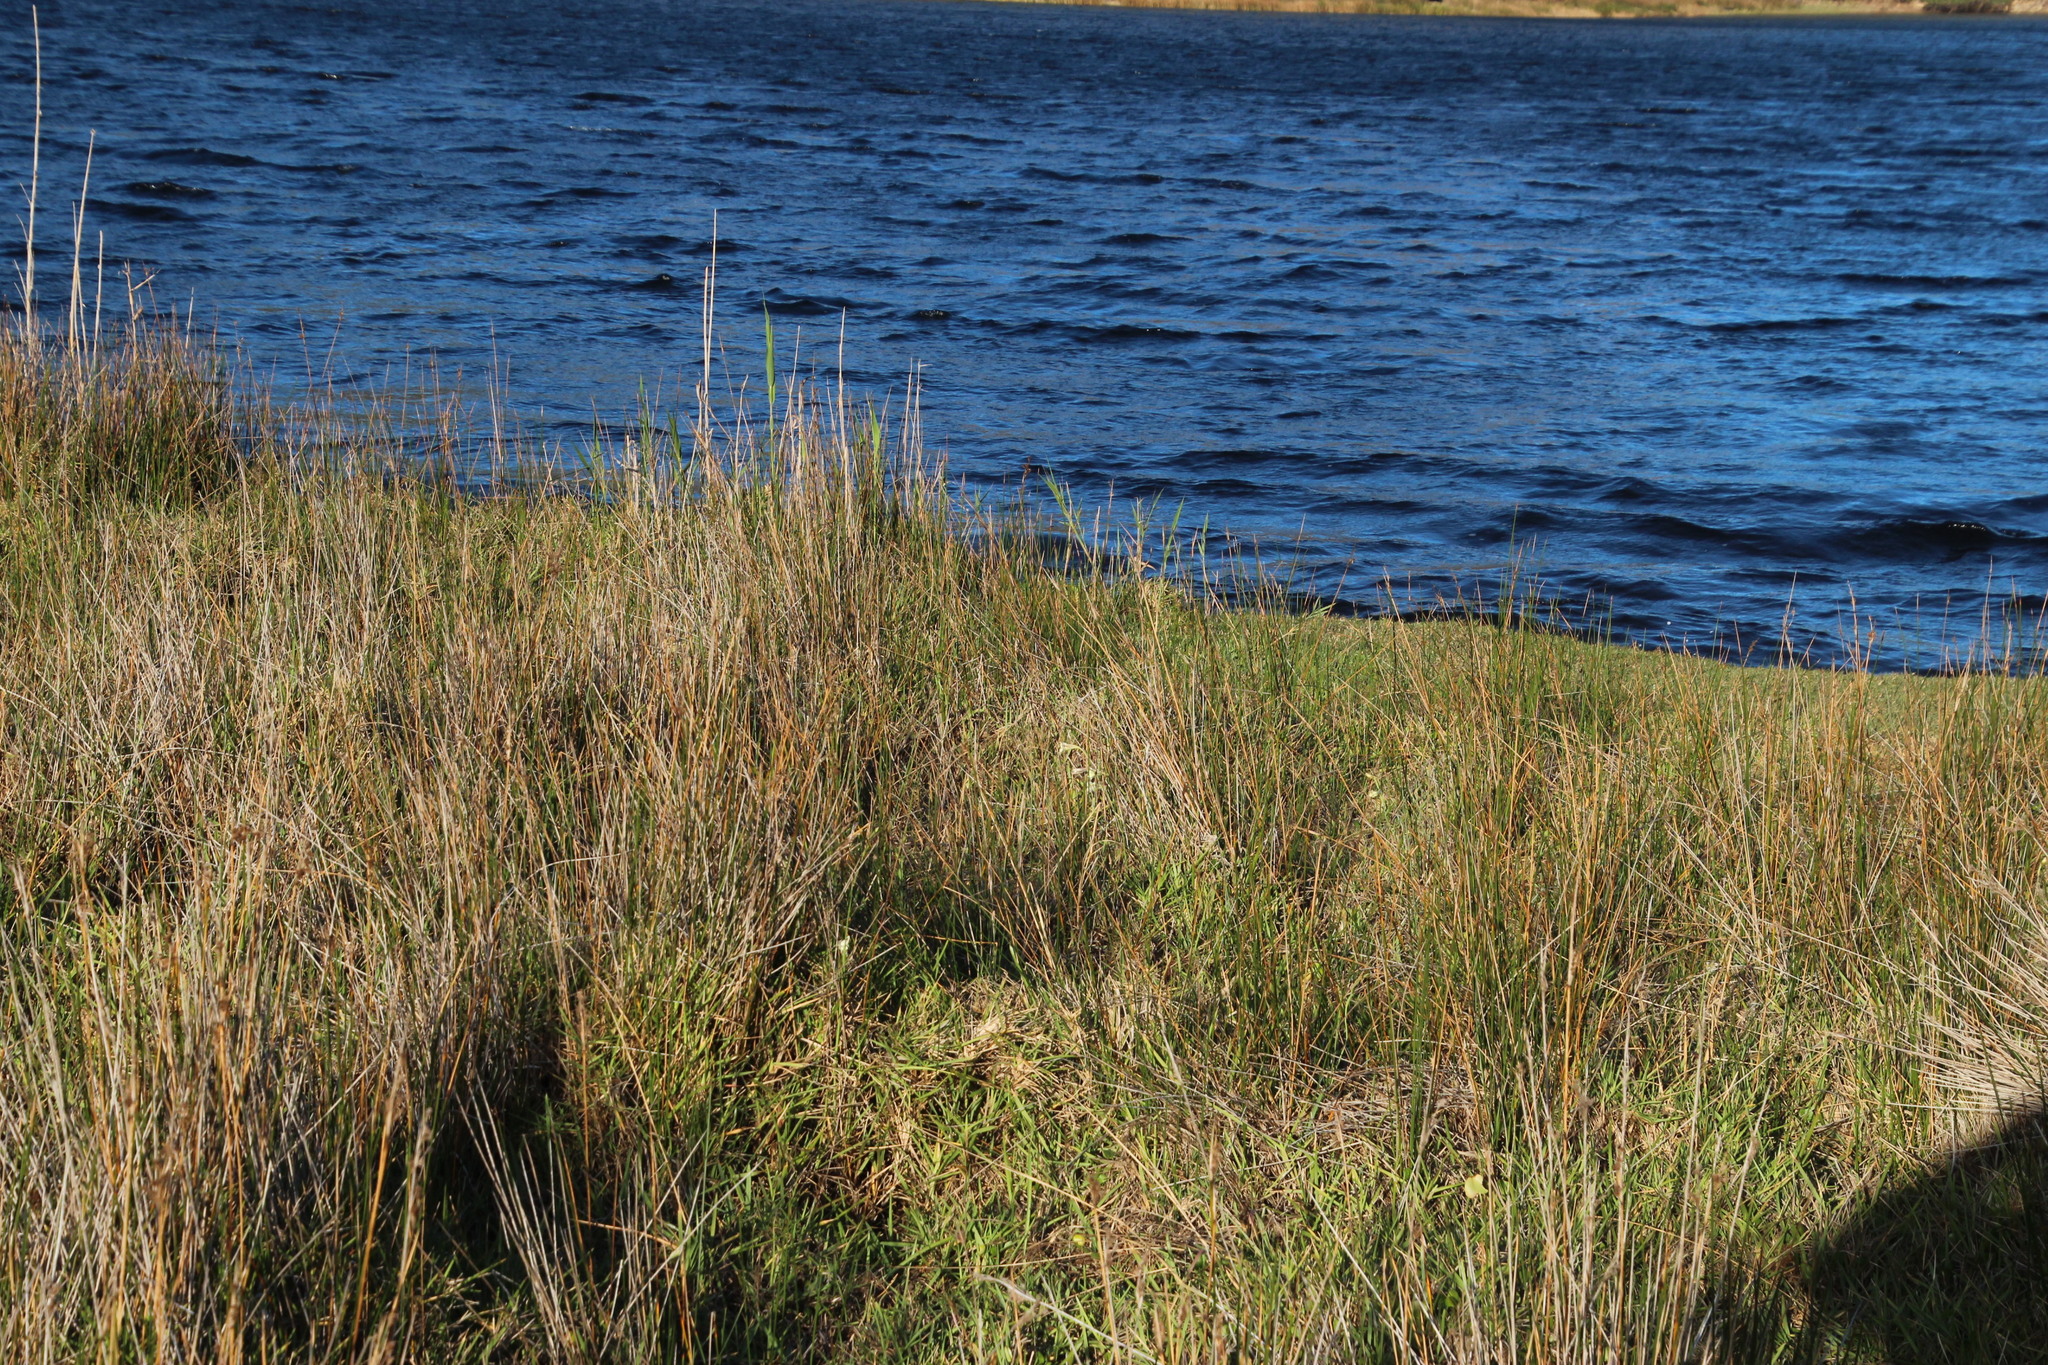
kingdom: Plantae
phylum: Tracheophyta
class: Liliopsida
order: Asparagales
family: Iridaceae
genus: Gladiolus
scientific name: Gladiolus tristis
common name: Ever-flowering gladiolus
